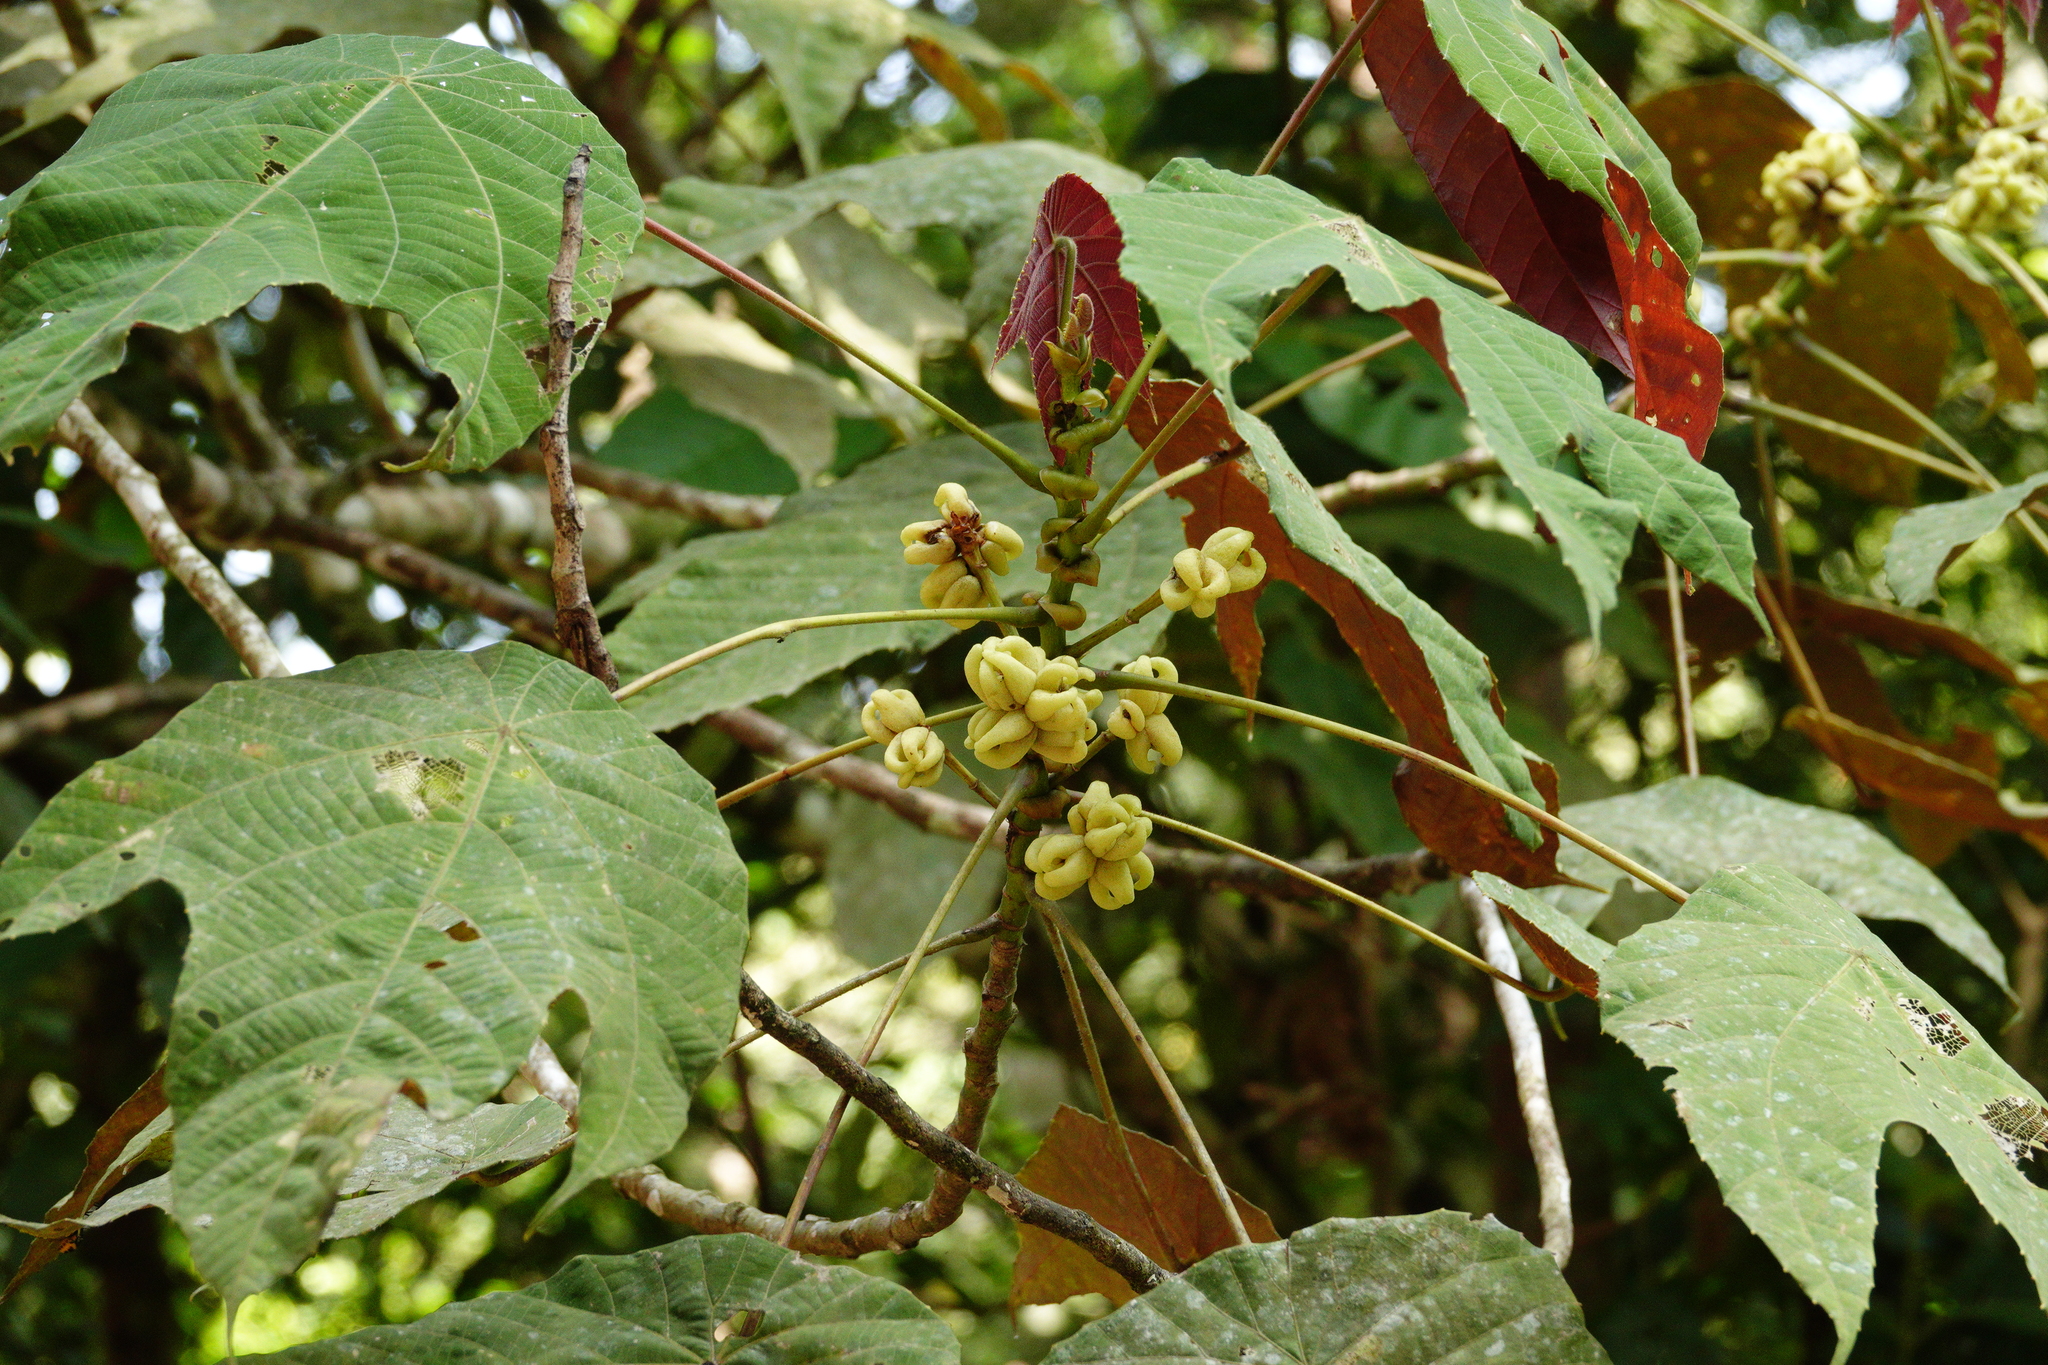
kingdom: Plantae
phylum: Tracheophyta
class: Magnoliopsida
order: Malpighiales
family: Euphorbiaceae
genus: Macaranga
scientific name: Macaranga triloba
